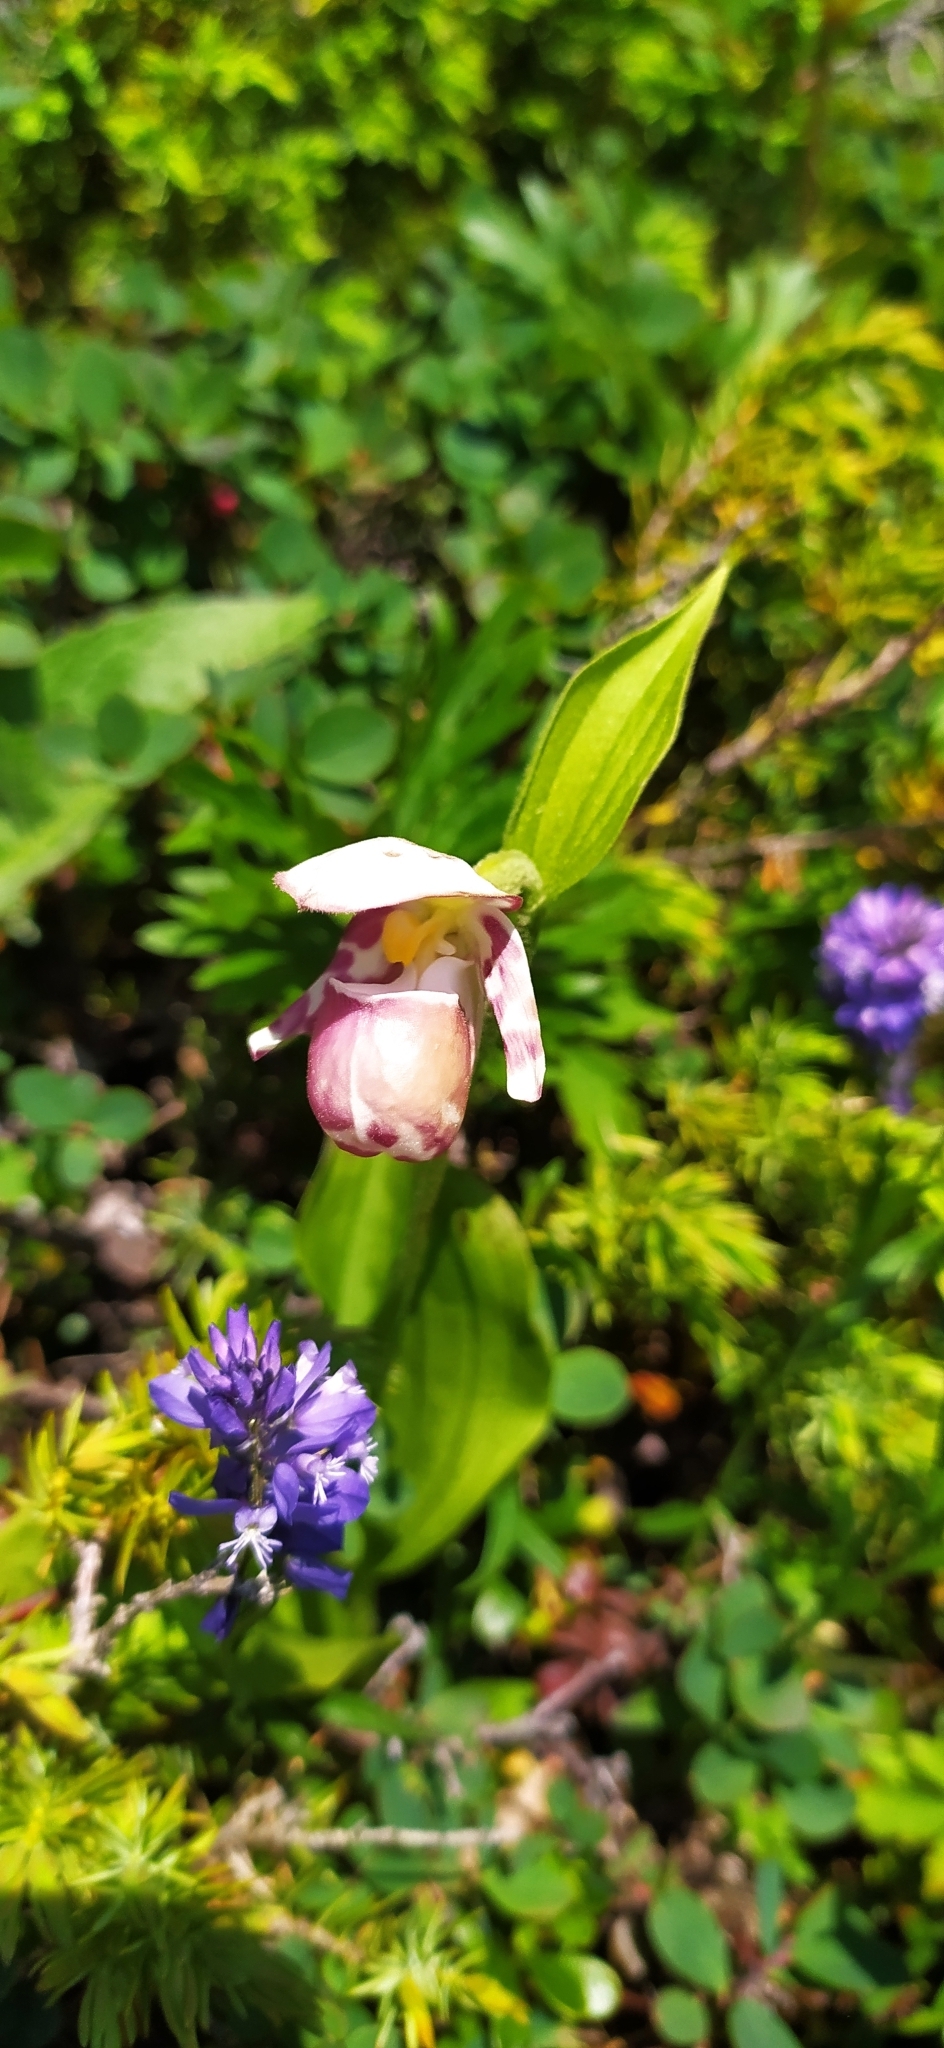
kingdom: Plantae
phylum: Tracheophyta
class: Liliopsida
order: Asparagales
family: Orchidaceae
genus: Cypripedium
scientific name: Cypripedium guttatum
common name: Pink lady slipper
